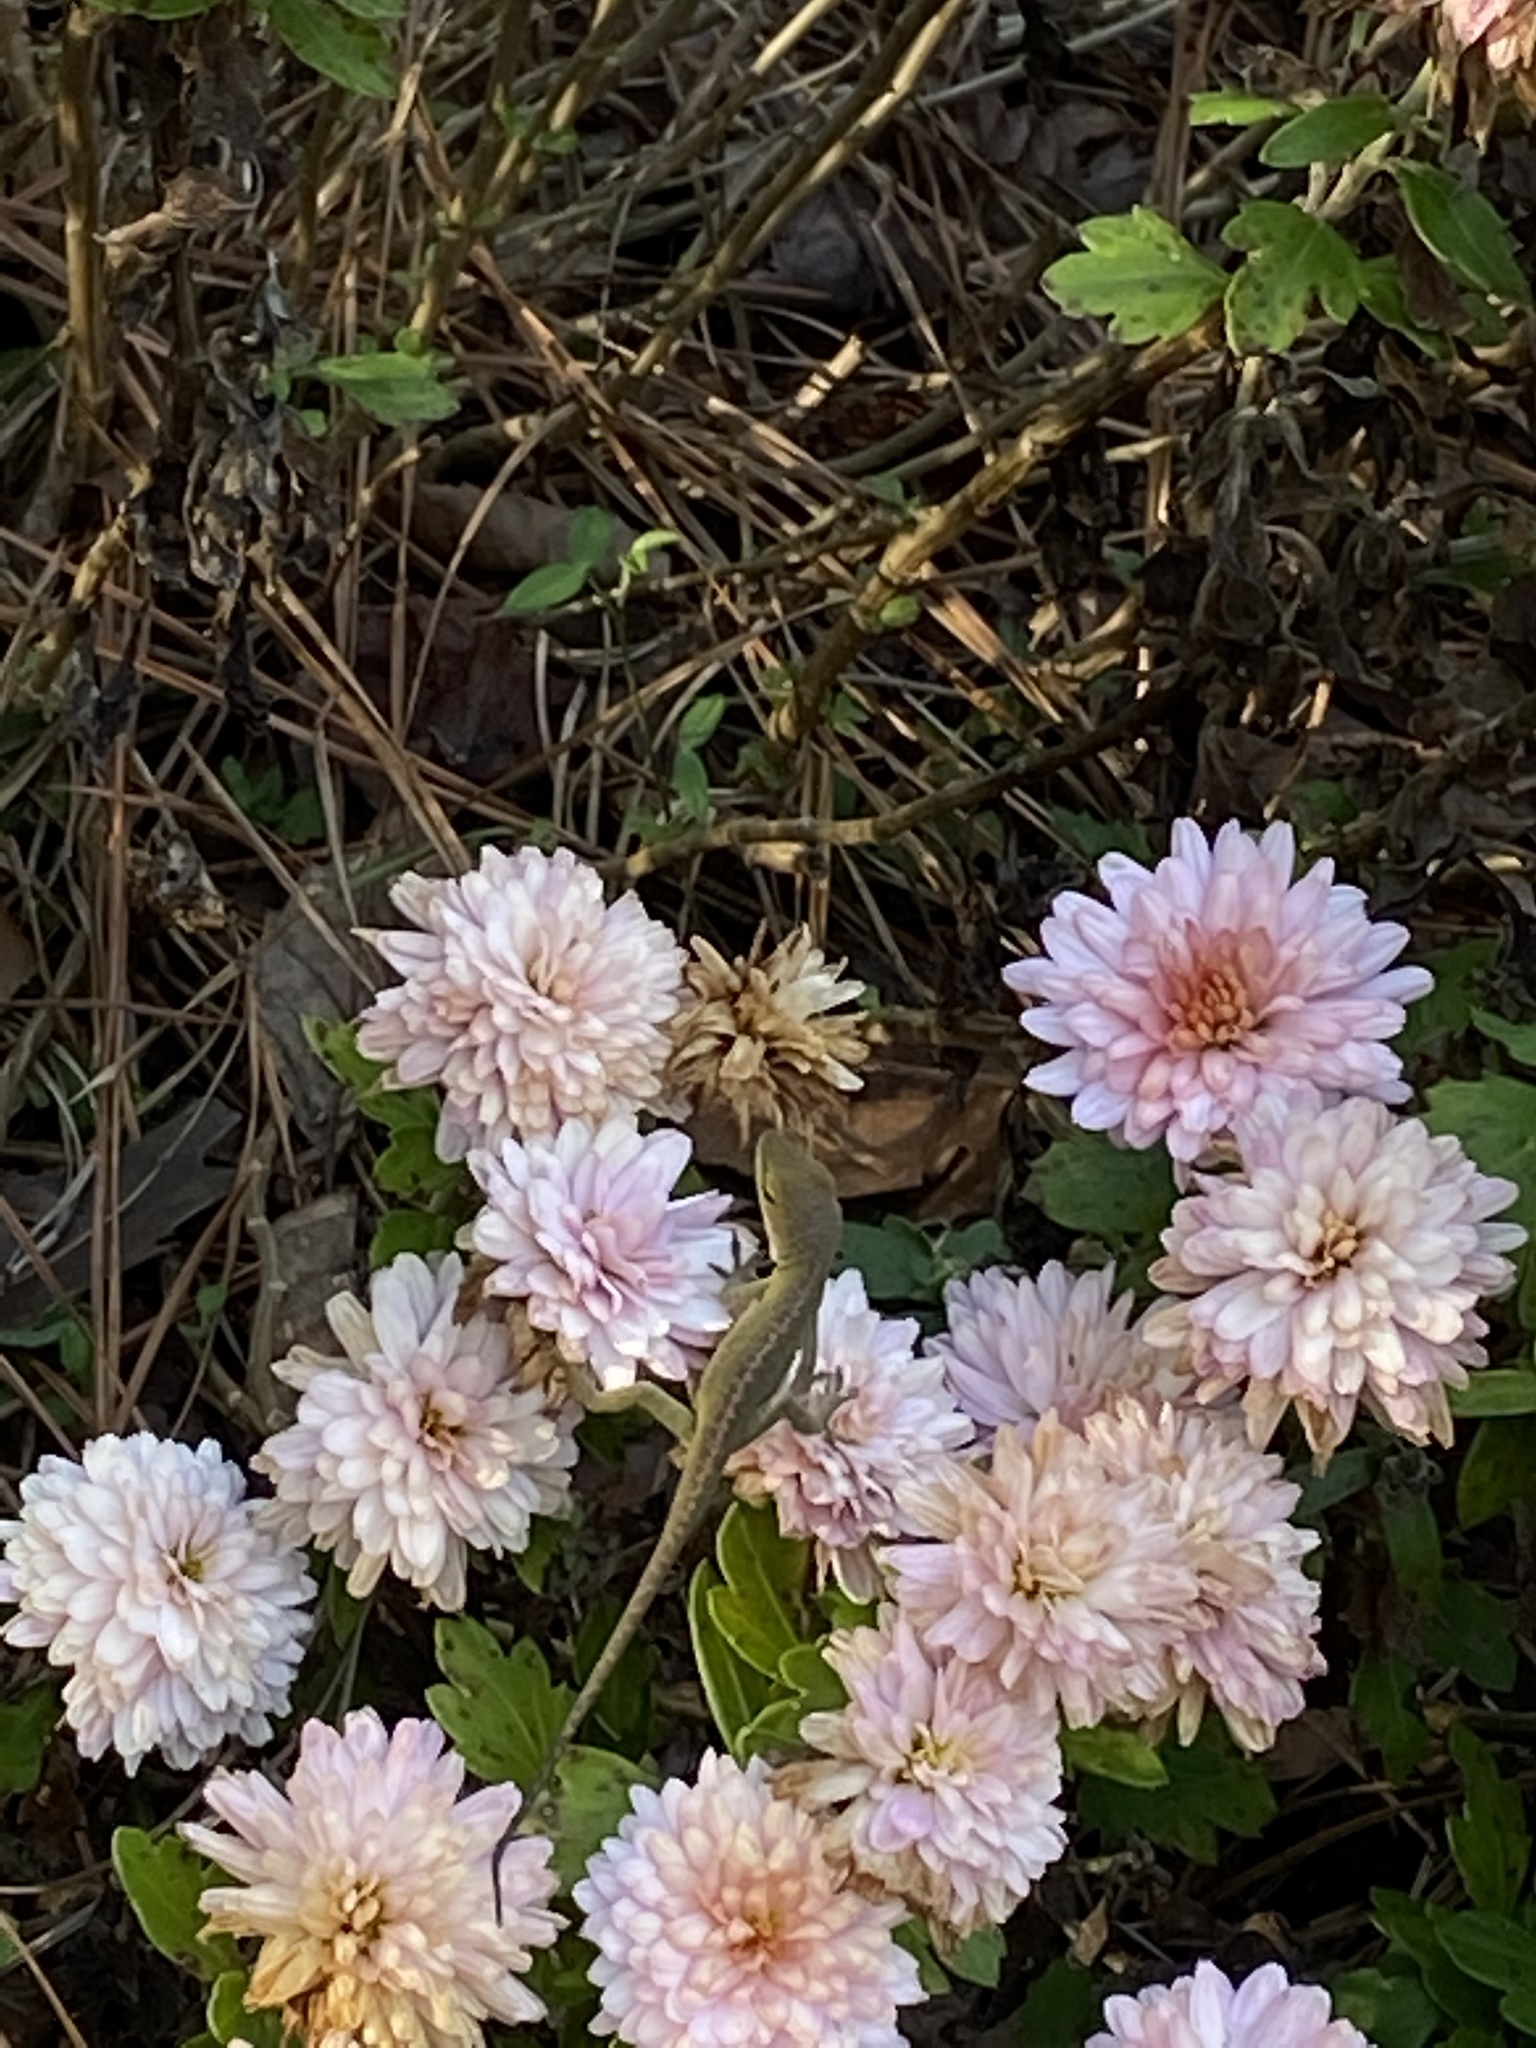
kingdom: Animalia
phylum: Chordata
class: Squamata
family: Dactyloidae
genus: Anolis
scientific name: Anolis carolinensis
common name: Green anole
